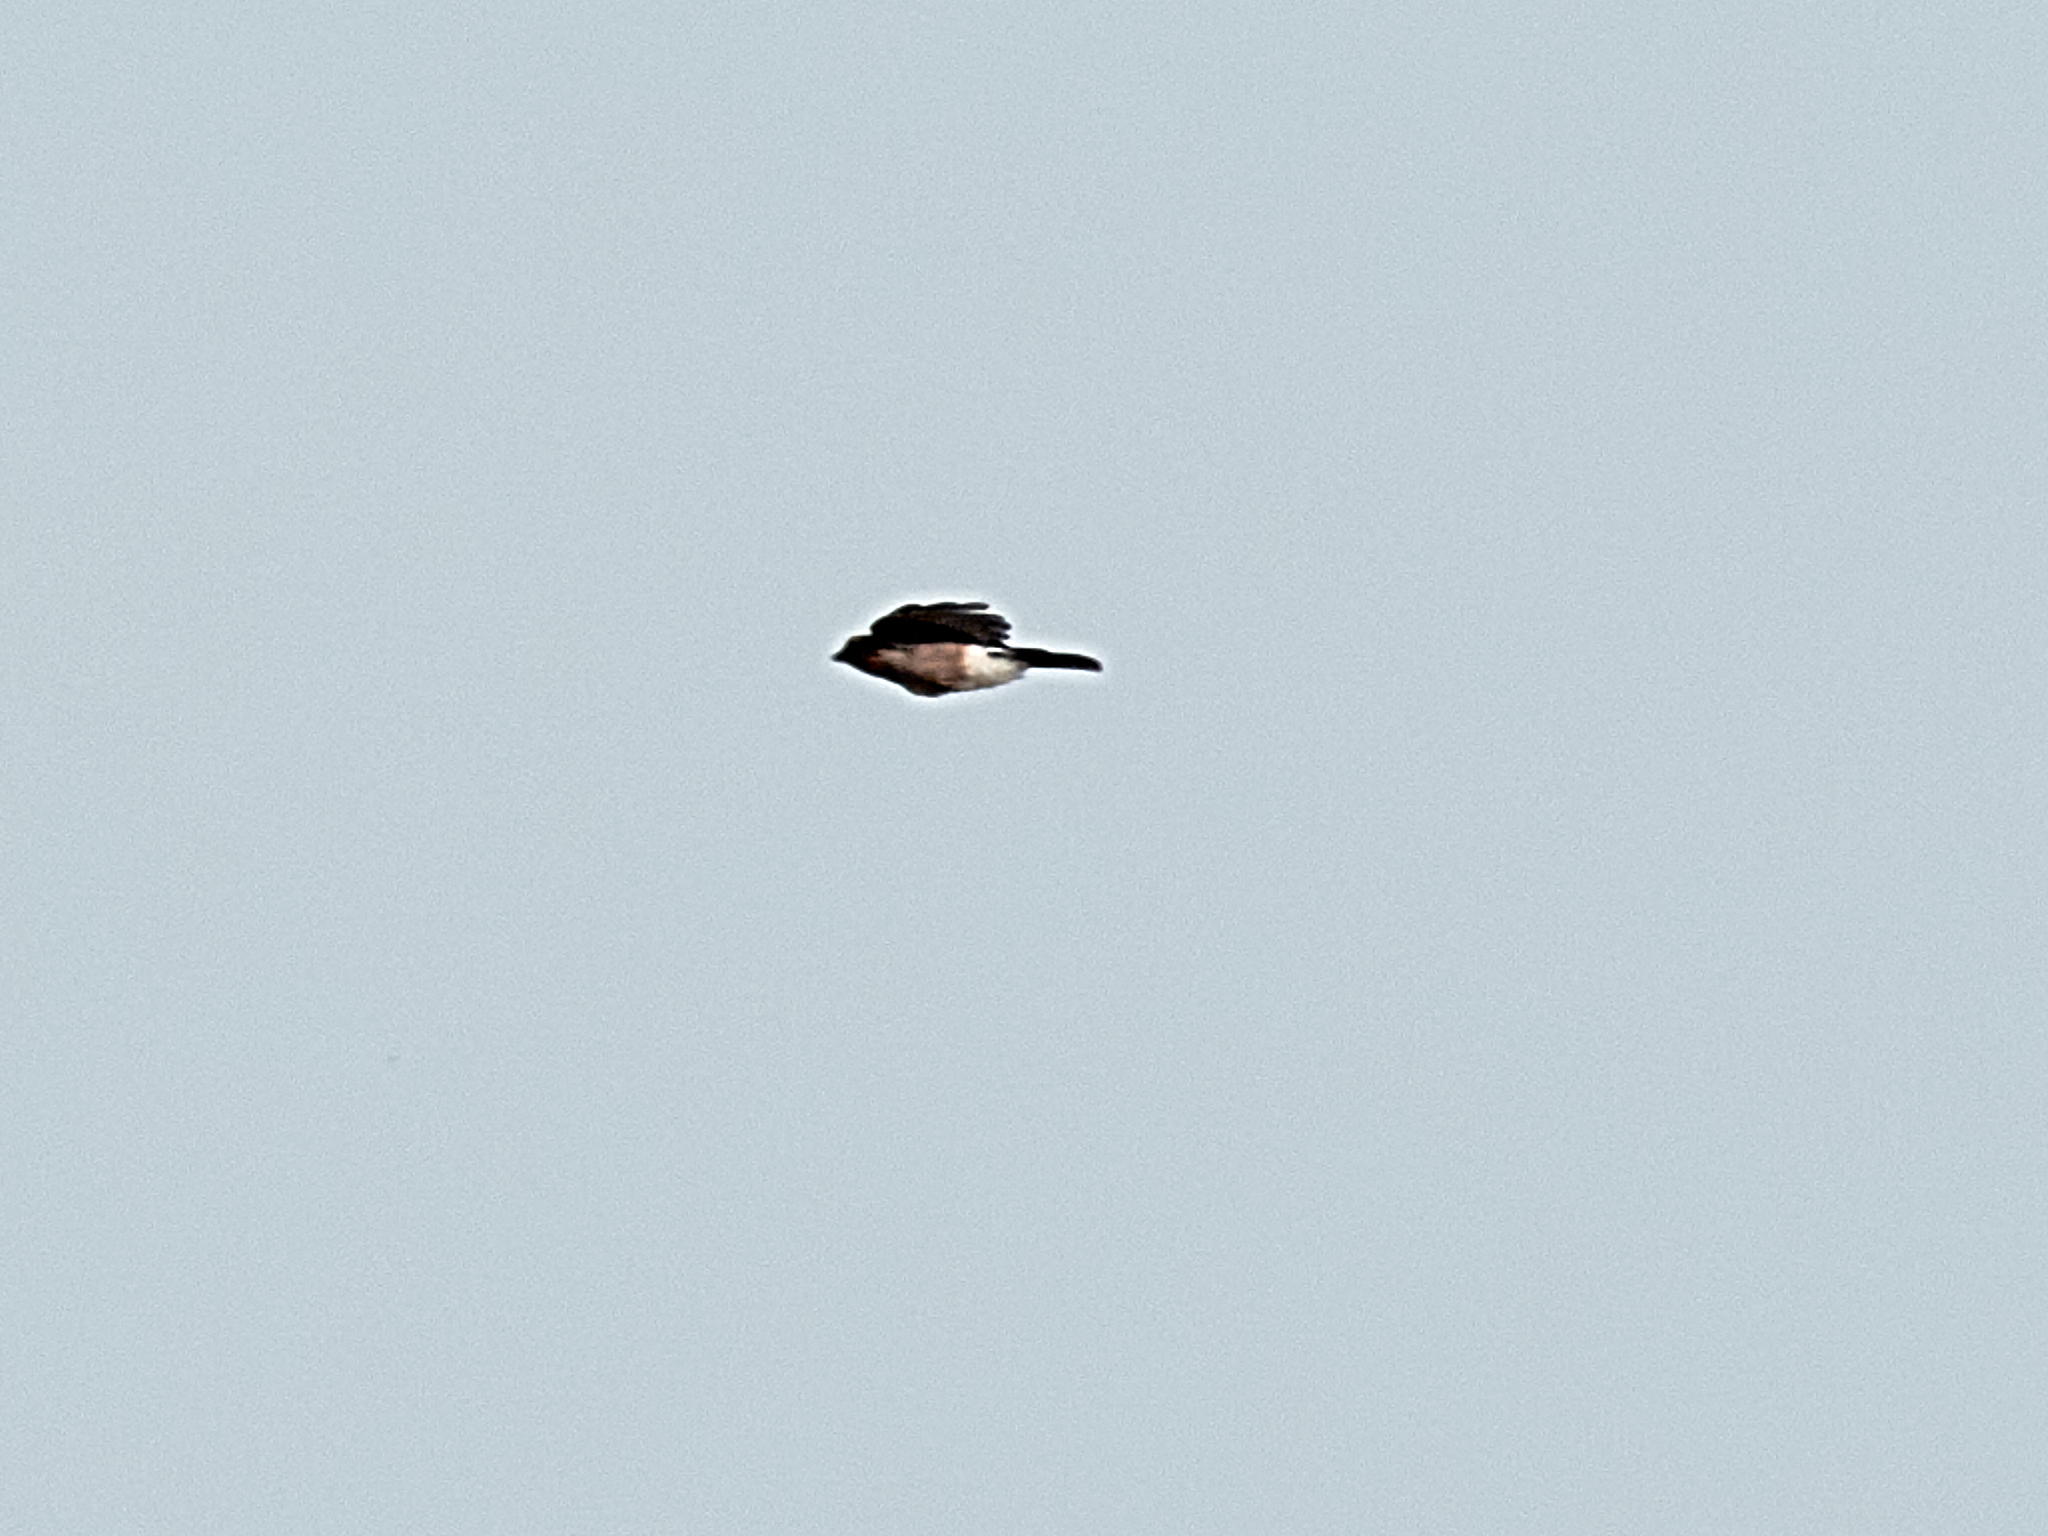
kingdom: Animalia
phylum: Chordata
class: Aves
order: Passeriformes
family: Corvidae
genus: Garrulus
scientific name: Garrulus glandarius
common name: Eurasian jay
